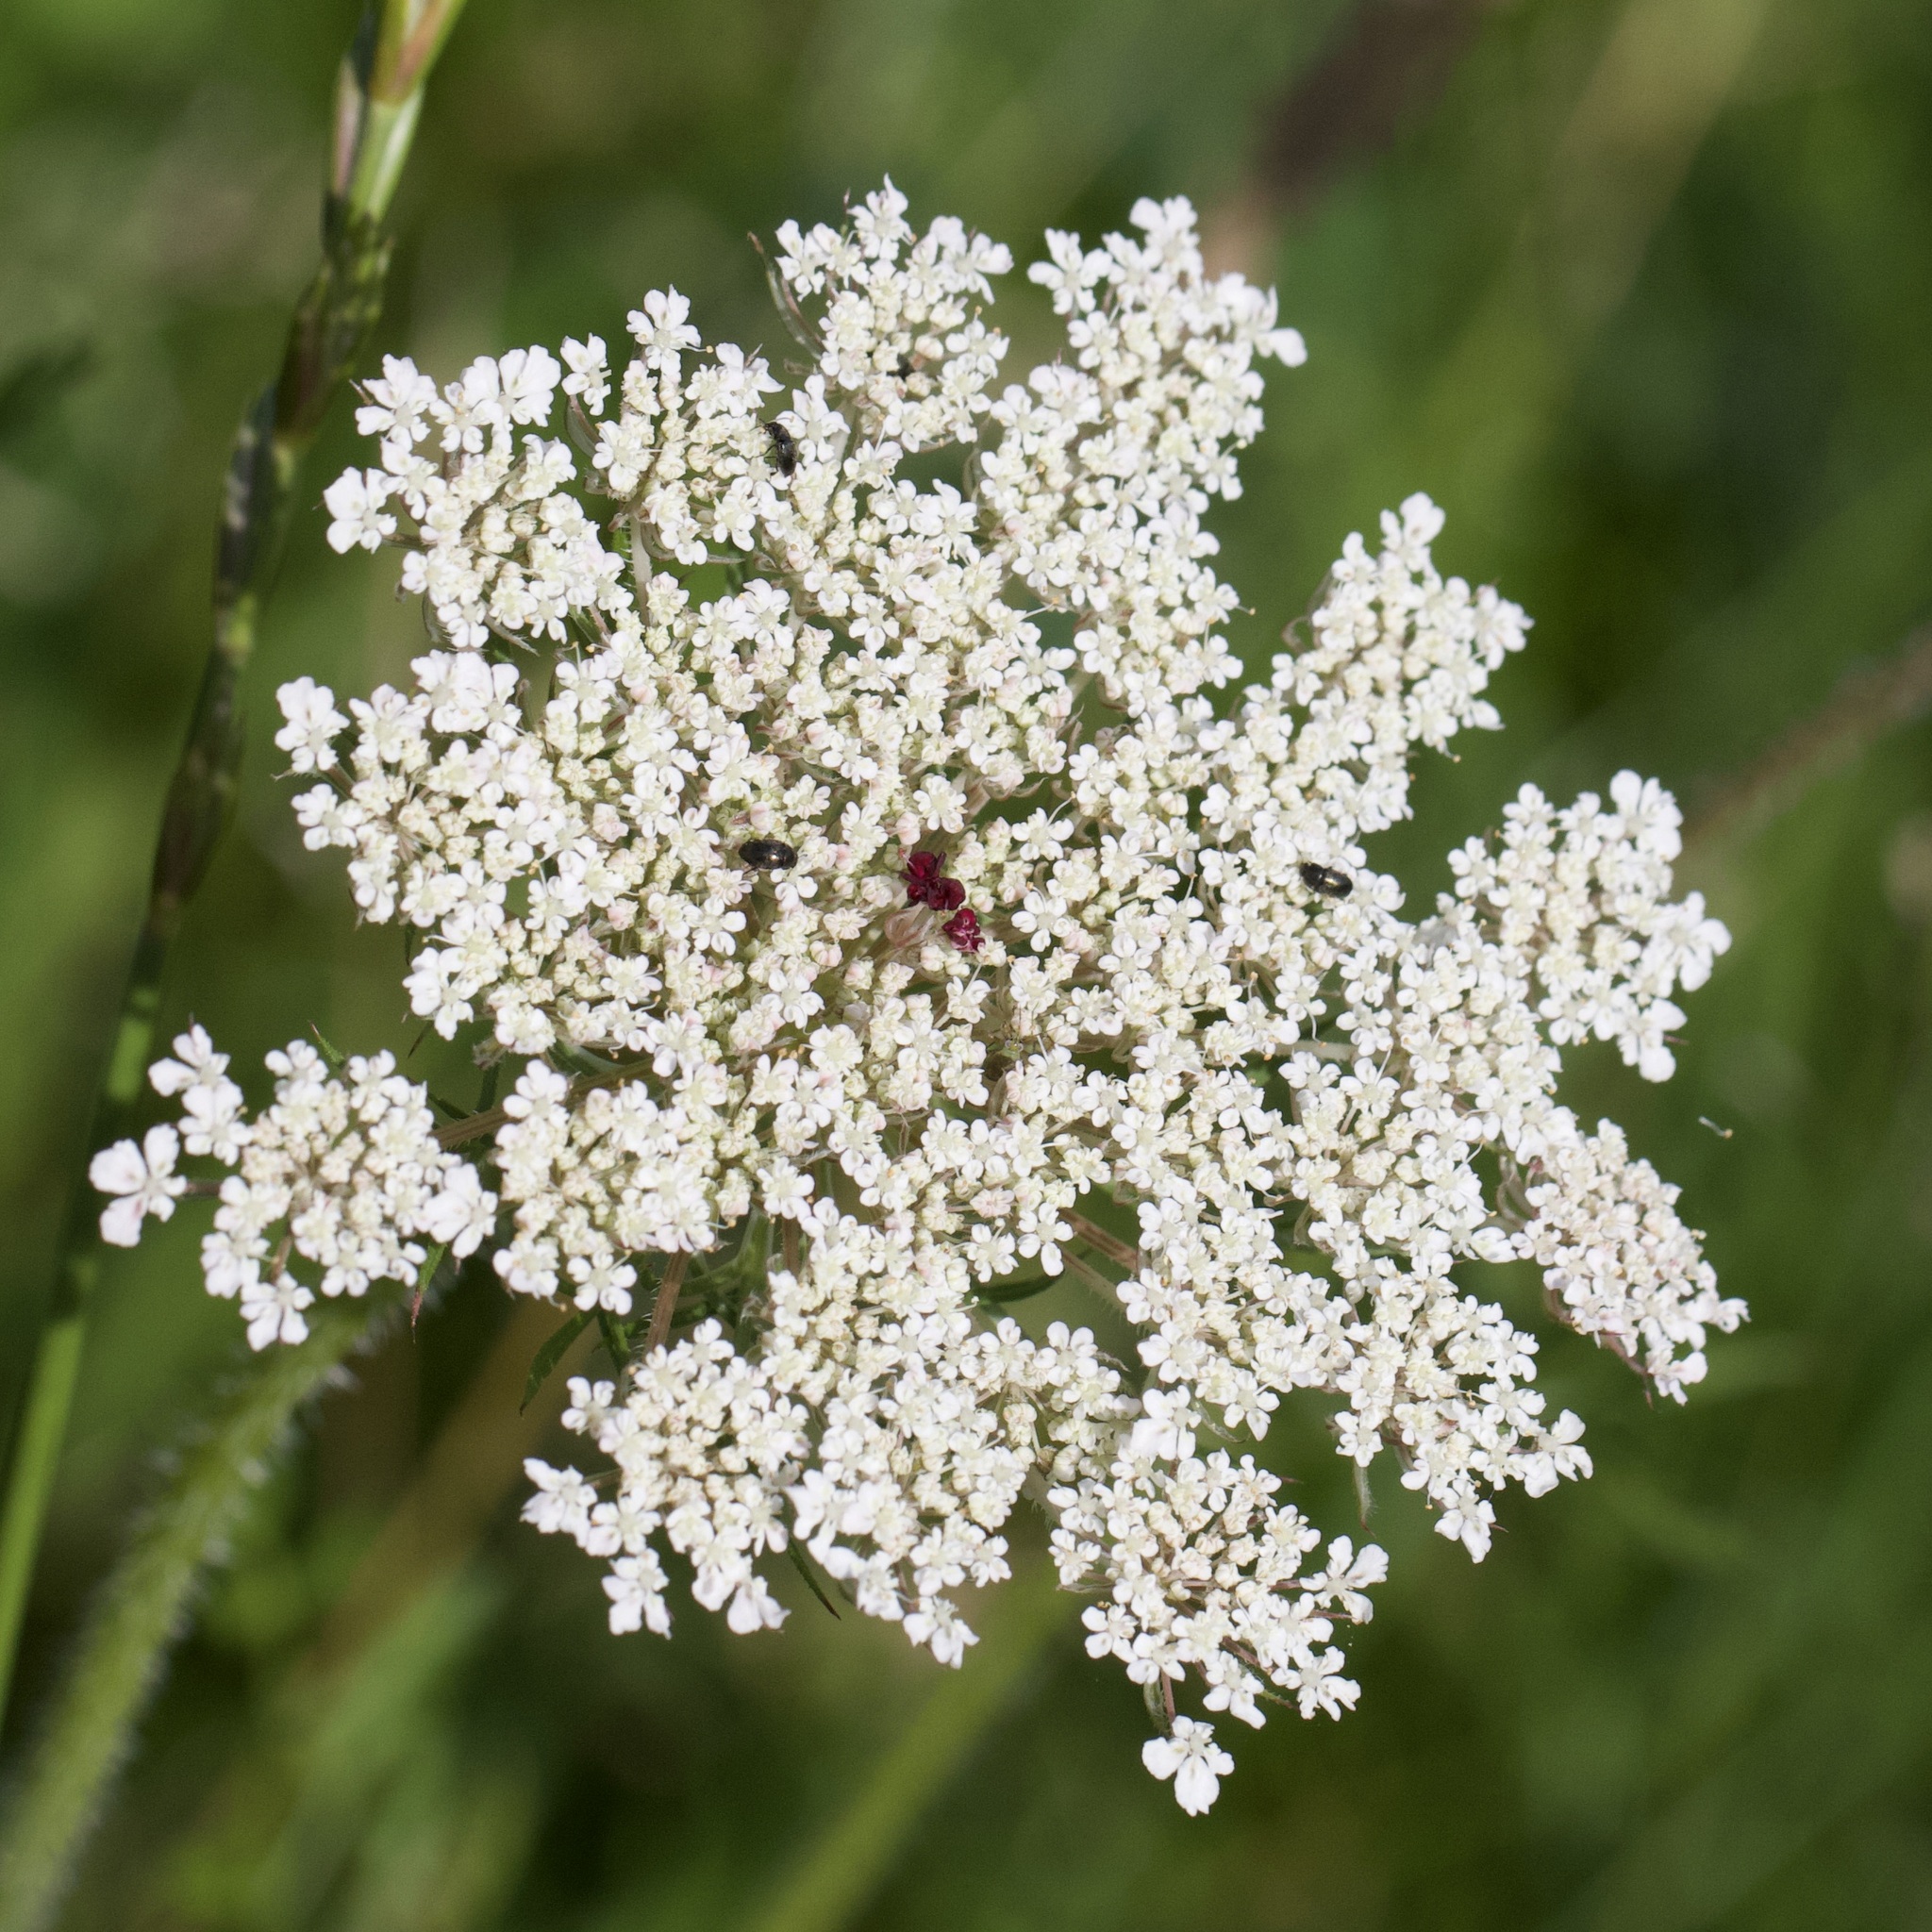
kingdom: Plantae
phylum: Tracheophyta
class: Magnoliopsida
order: Apiales
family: Apiaceae
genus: Daucus
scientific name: Daucus carota
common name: Wild carrot
